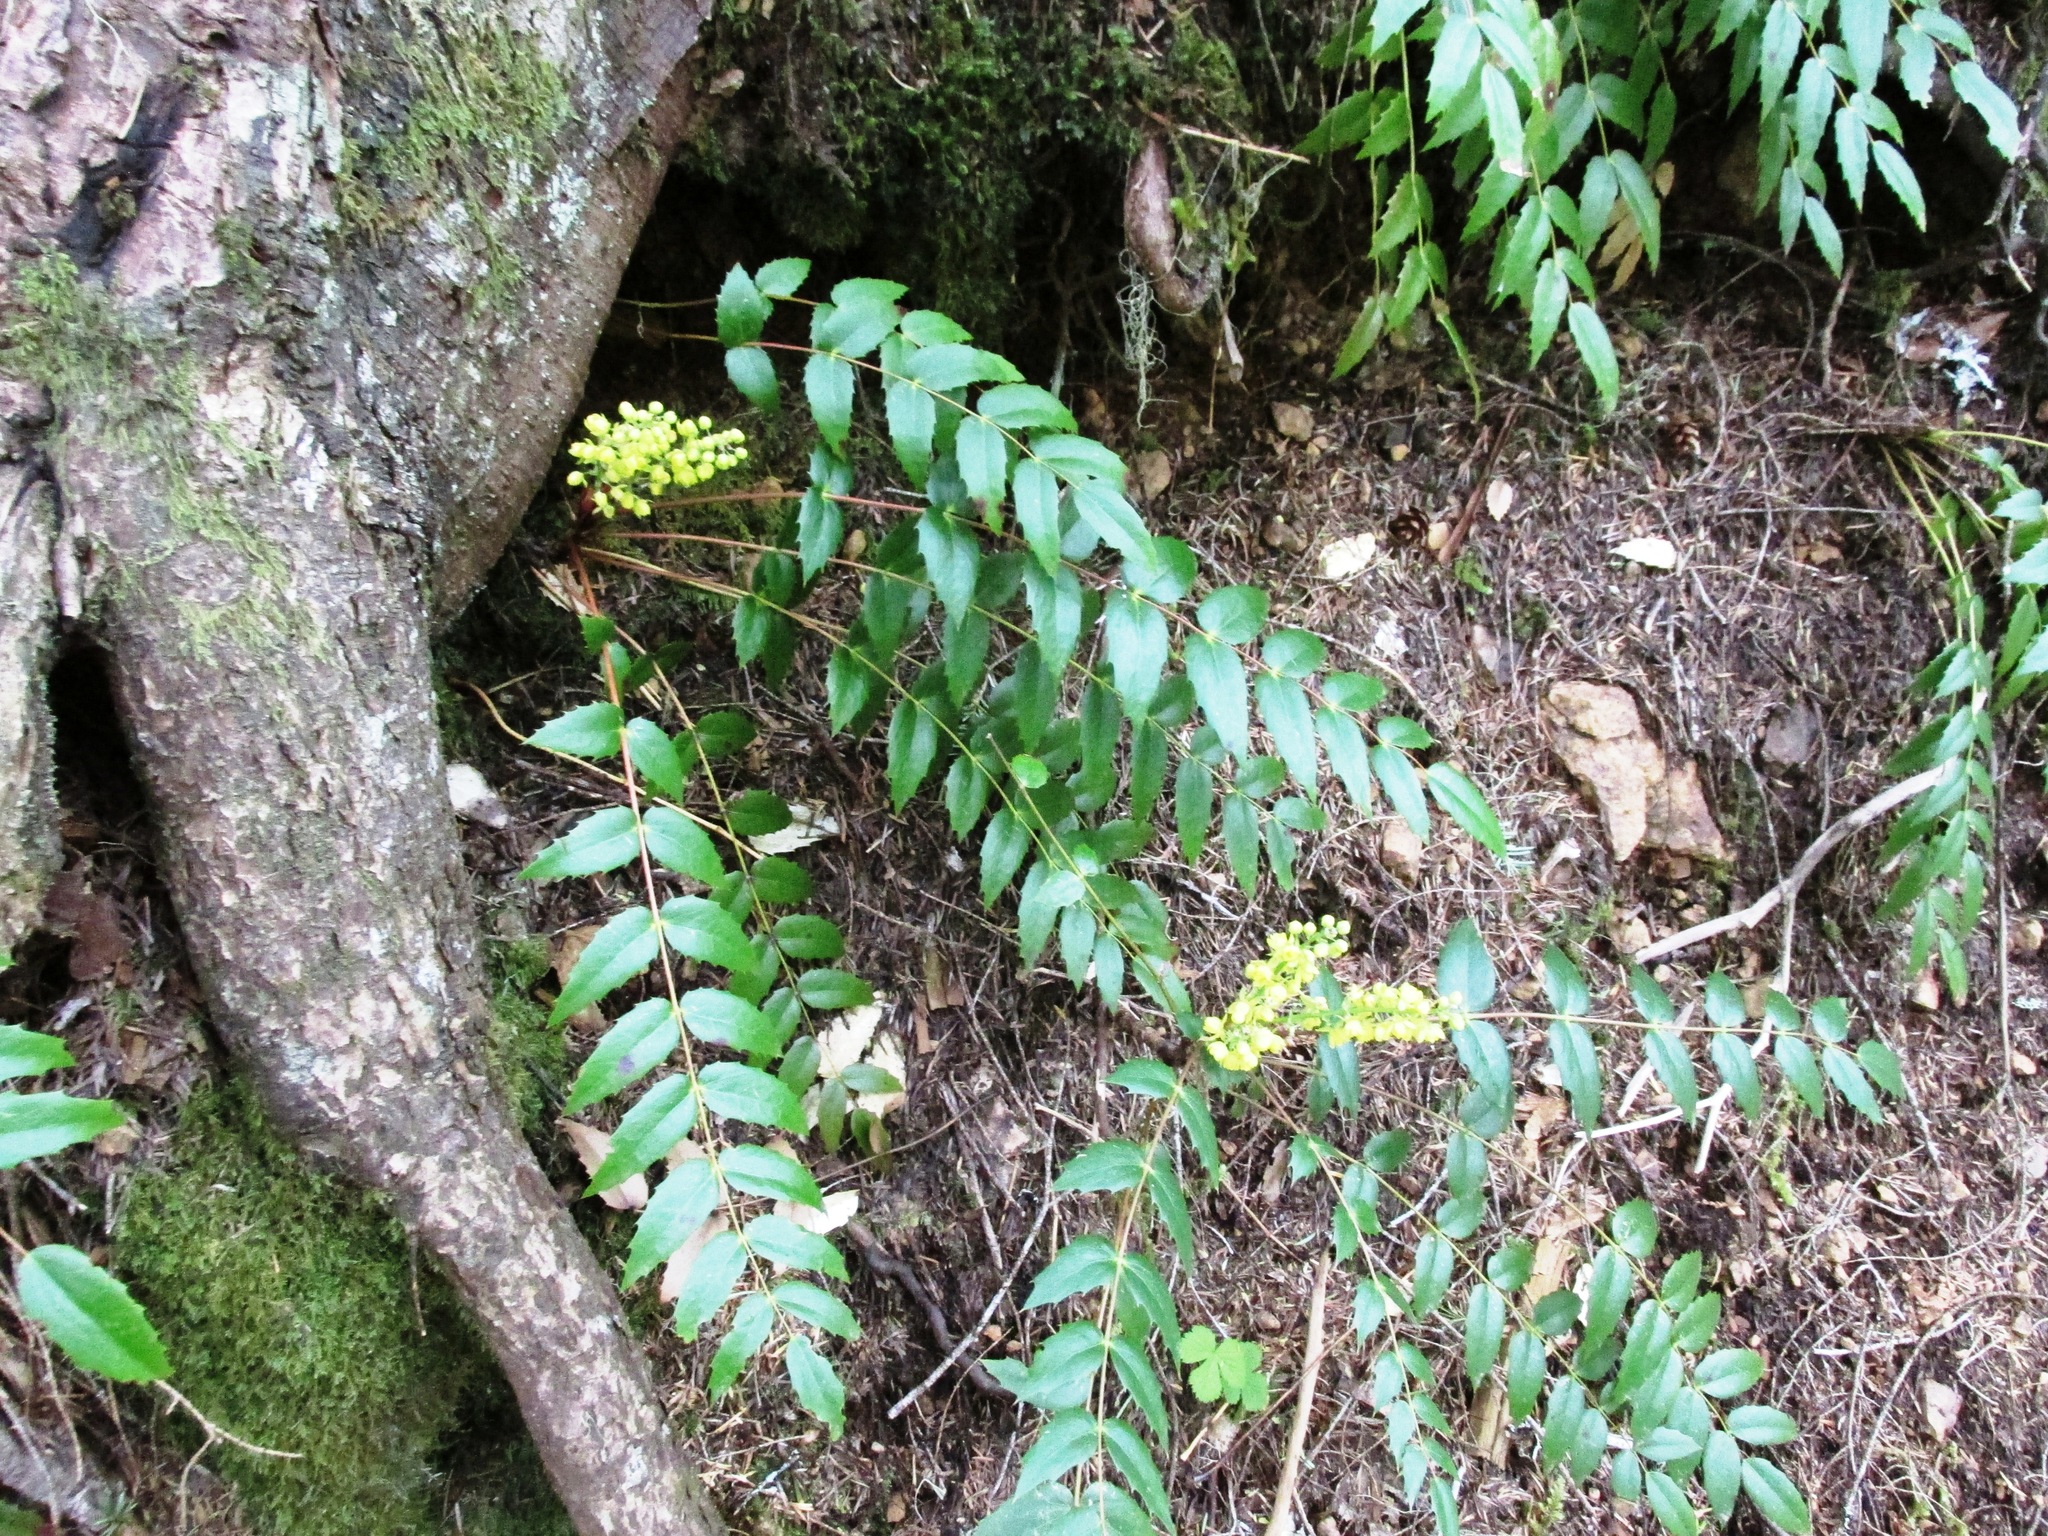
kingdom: Plantae
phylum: Tracheophyta
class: Magnoliopsida
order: Ranunculales
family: Berberidaceae
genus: Mahonia
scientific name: Mahonia nervosa
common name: Cascade oregon-grape
